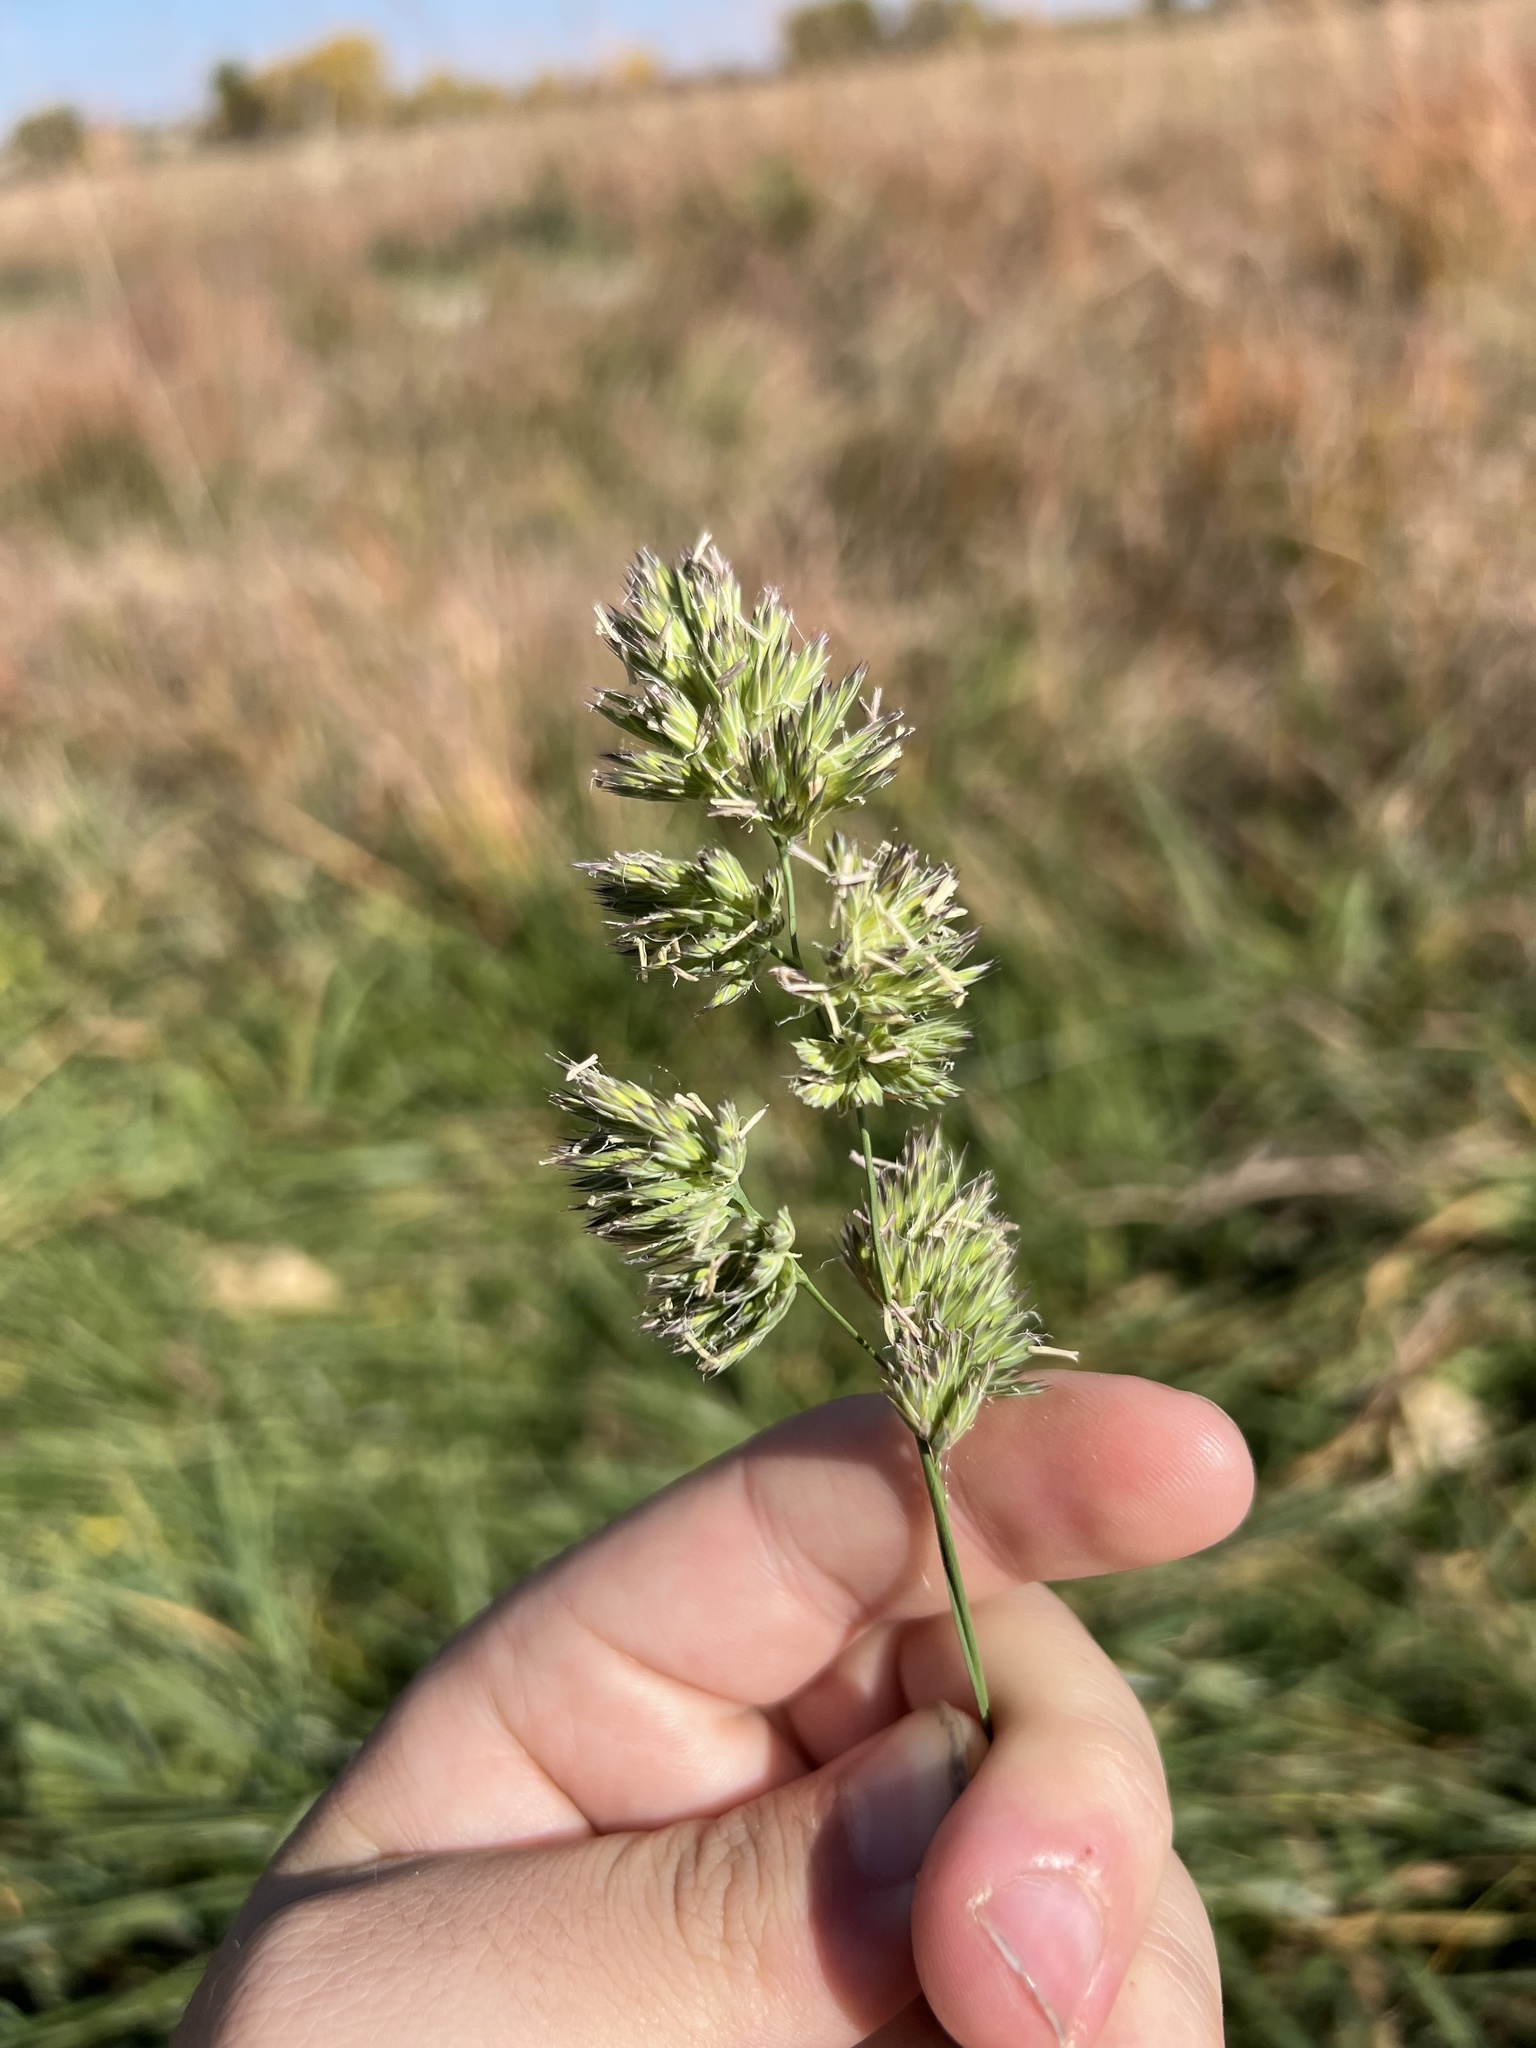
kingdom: Plantae
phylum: Tracheophyta
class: Liliopsida
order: Poales
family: Poaceae
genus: Dactylis
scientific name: Dactylis glomerata
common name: Orchardgrass
